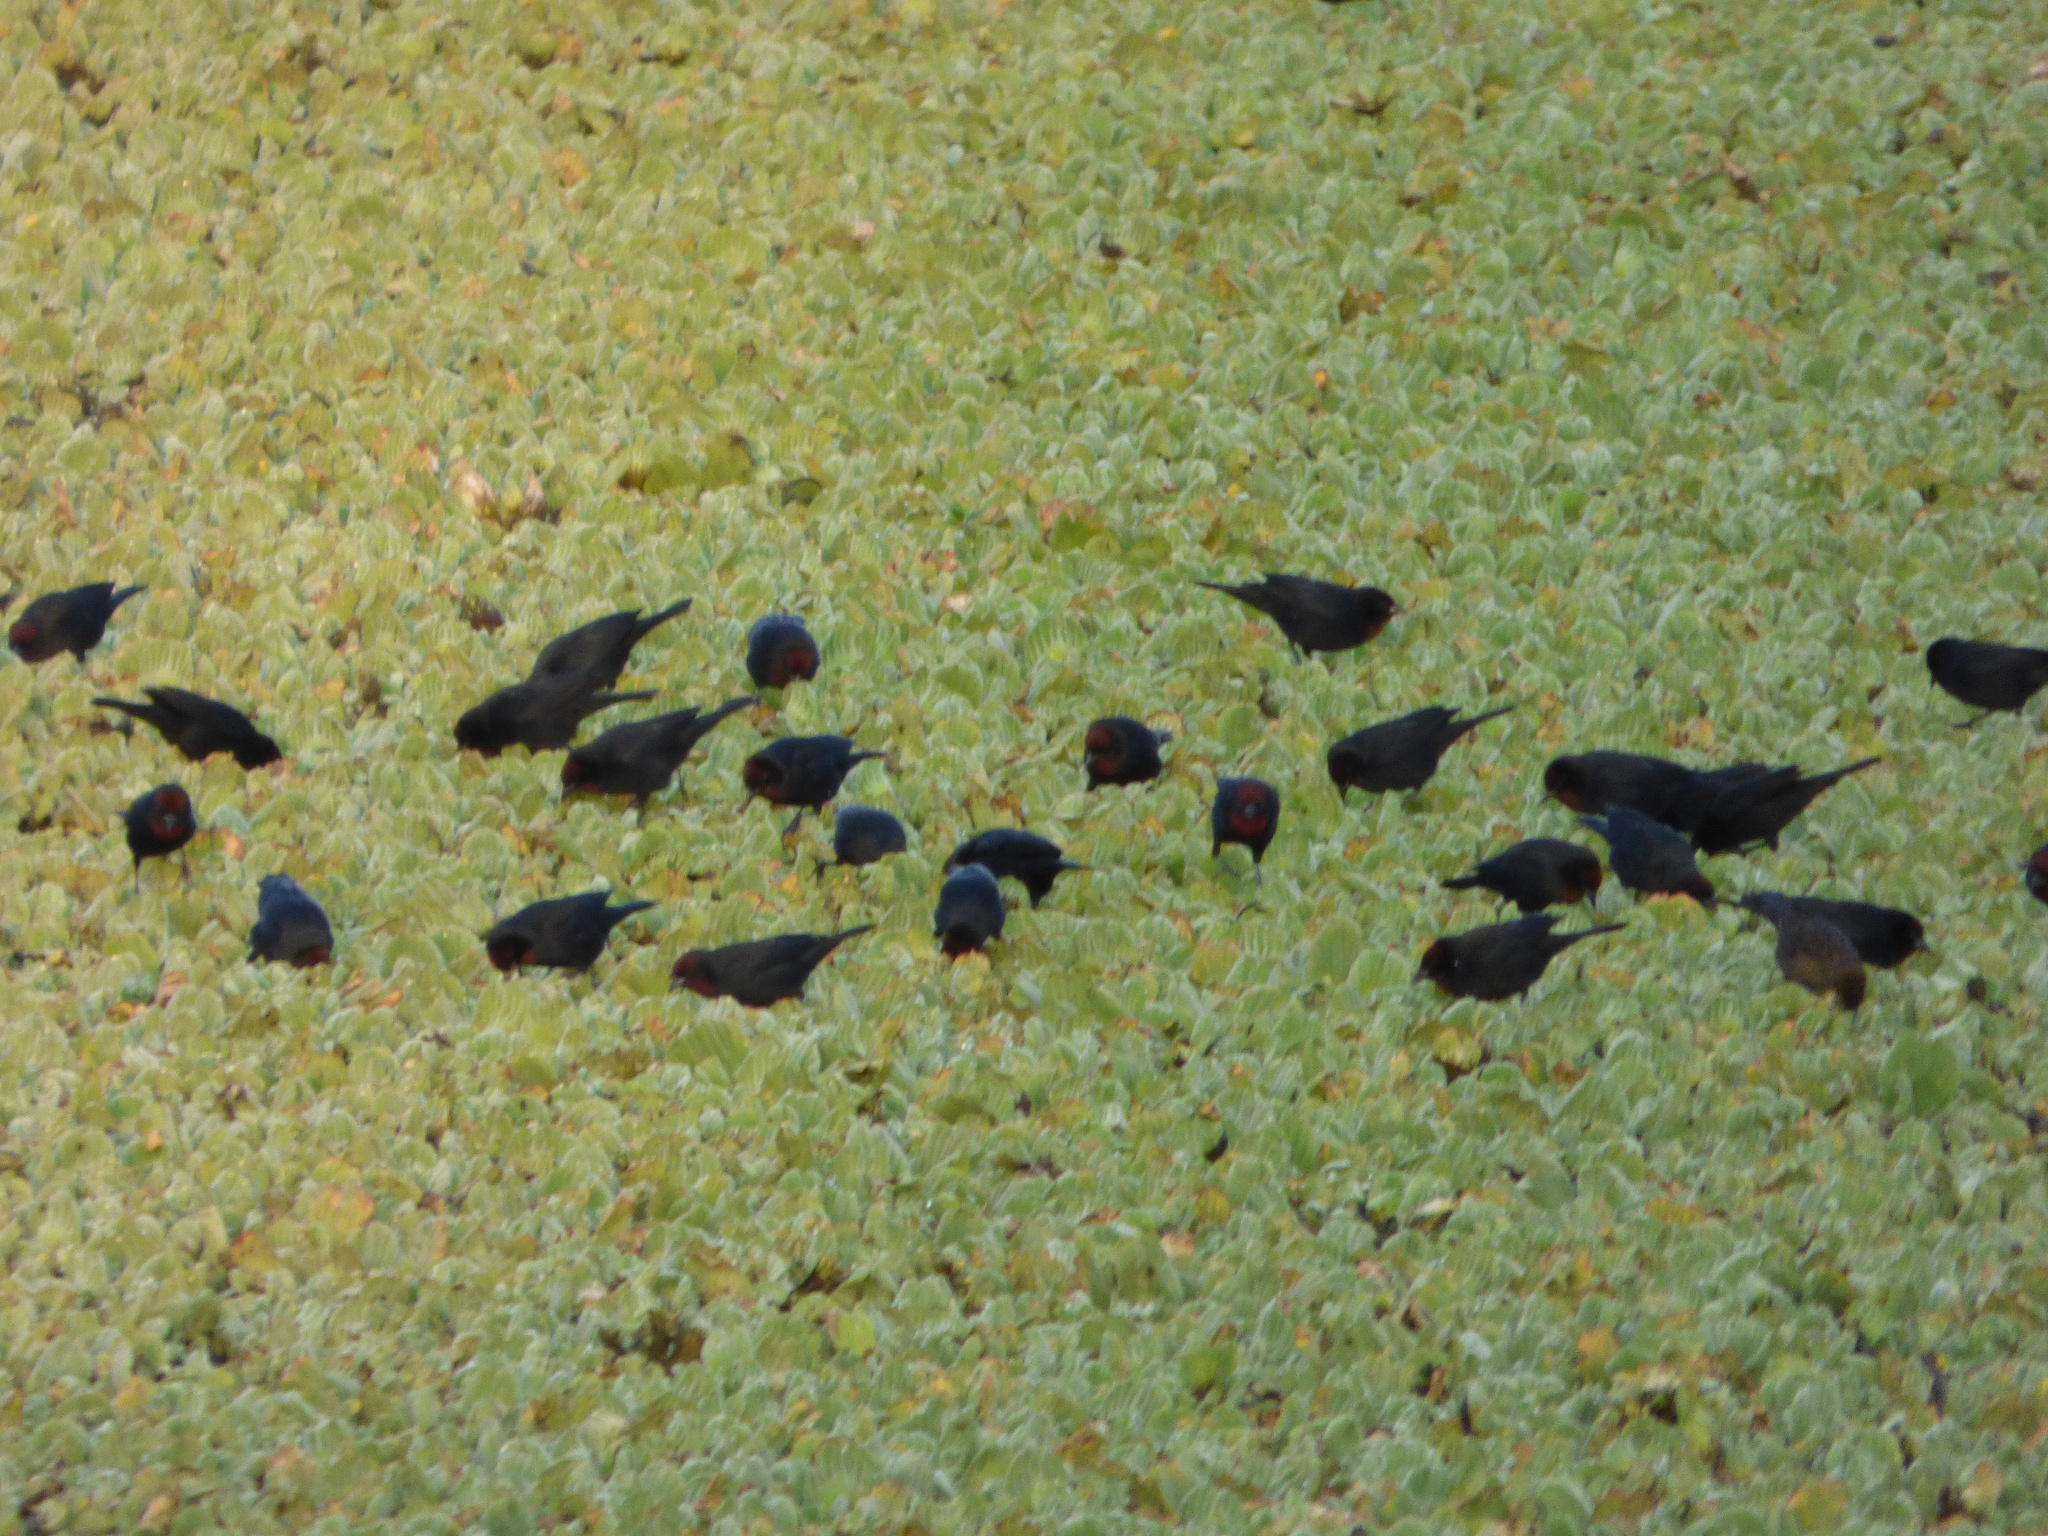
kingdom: Animalia
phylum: Chordata
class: Aves
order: Passeriformes
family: Icteridae
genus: Chrysomus
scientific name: Chrysomus ruficapillus
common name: Chestnut-capped blackbird
